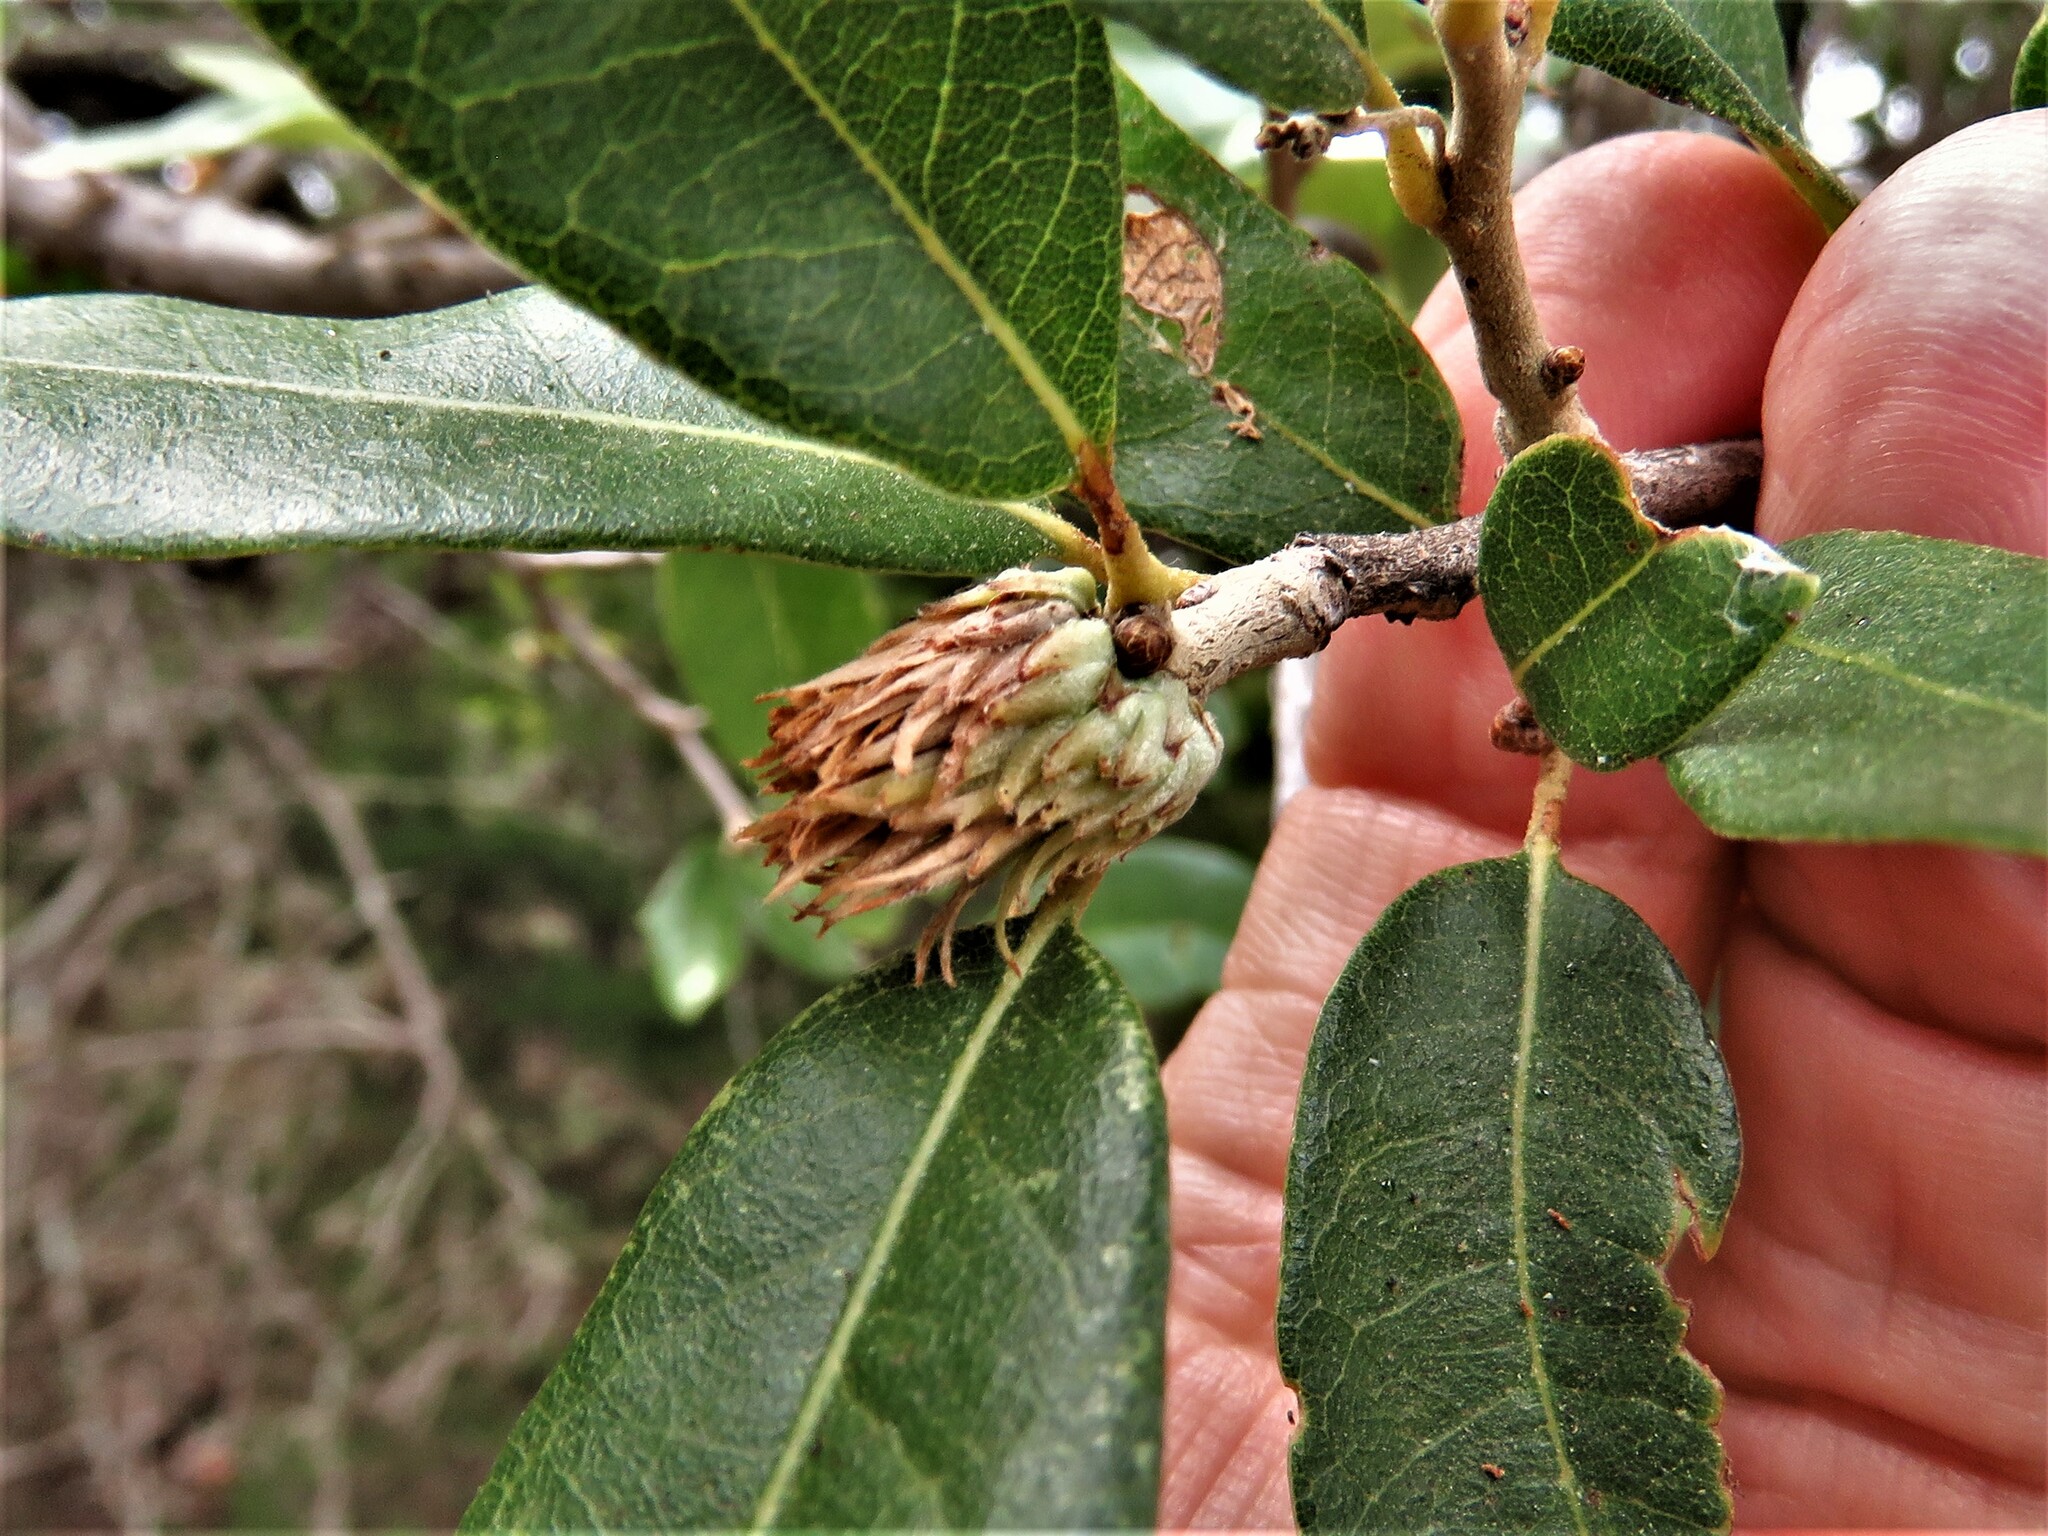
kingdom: Animalia
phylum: Arthropoda
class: Insecta
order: Hymenoptera
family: Cynipidae
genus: Andricus
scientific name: Andricus quercusfoliatus
